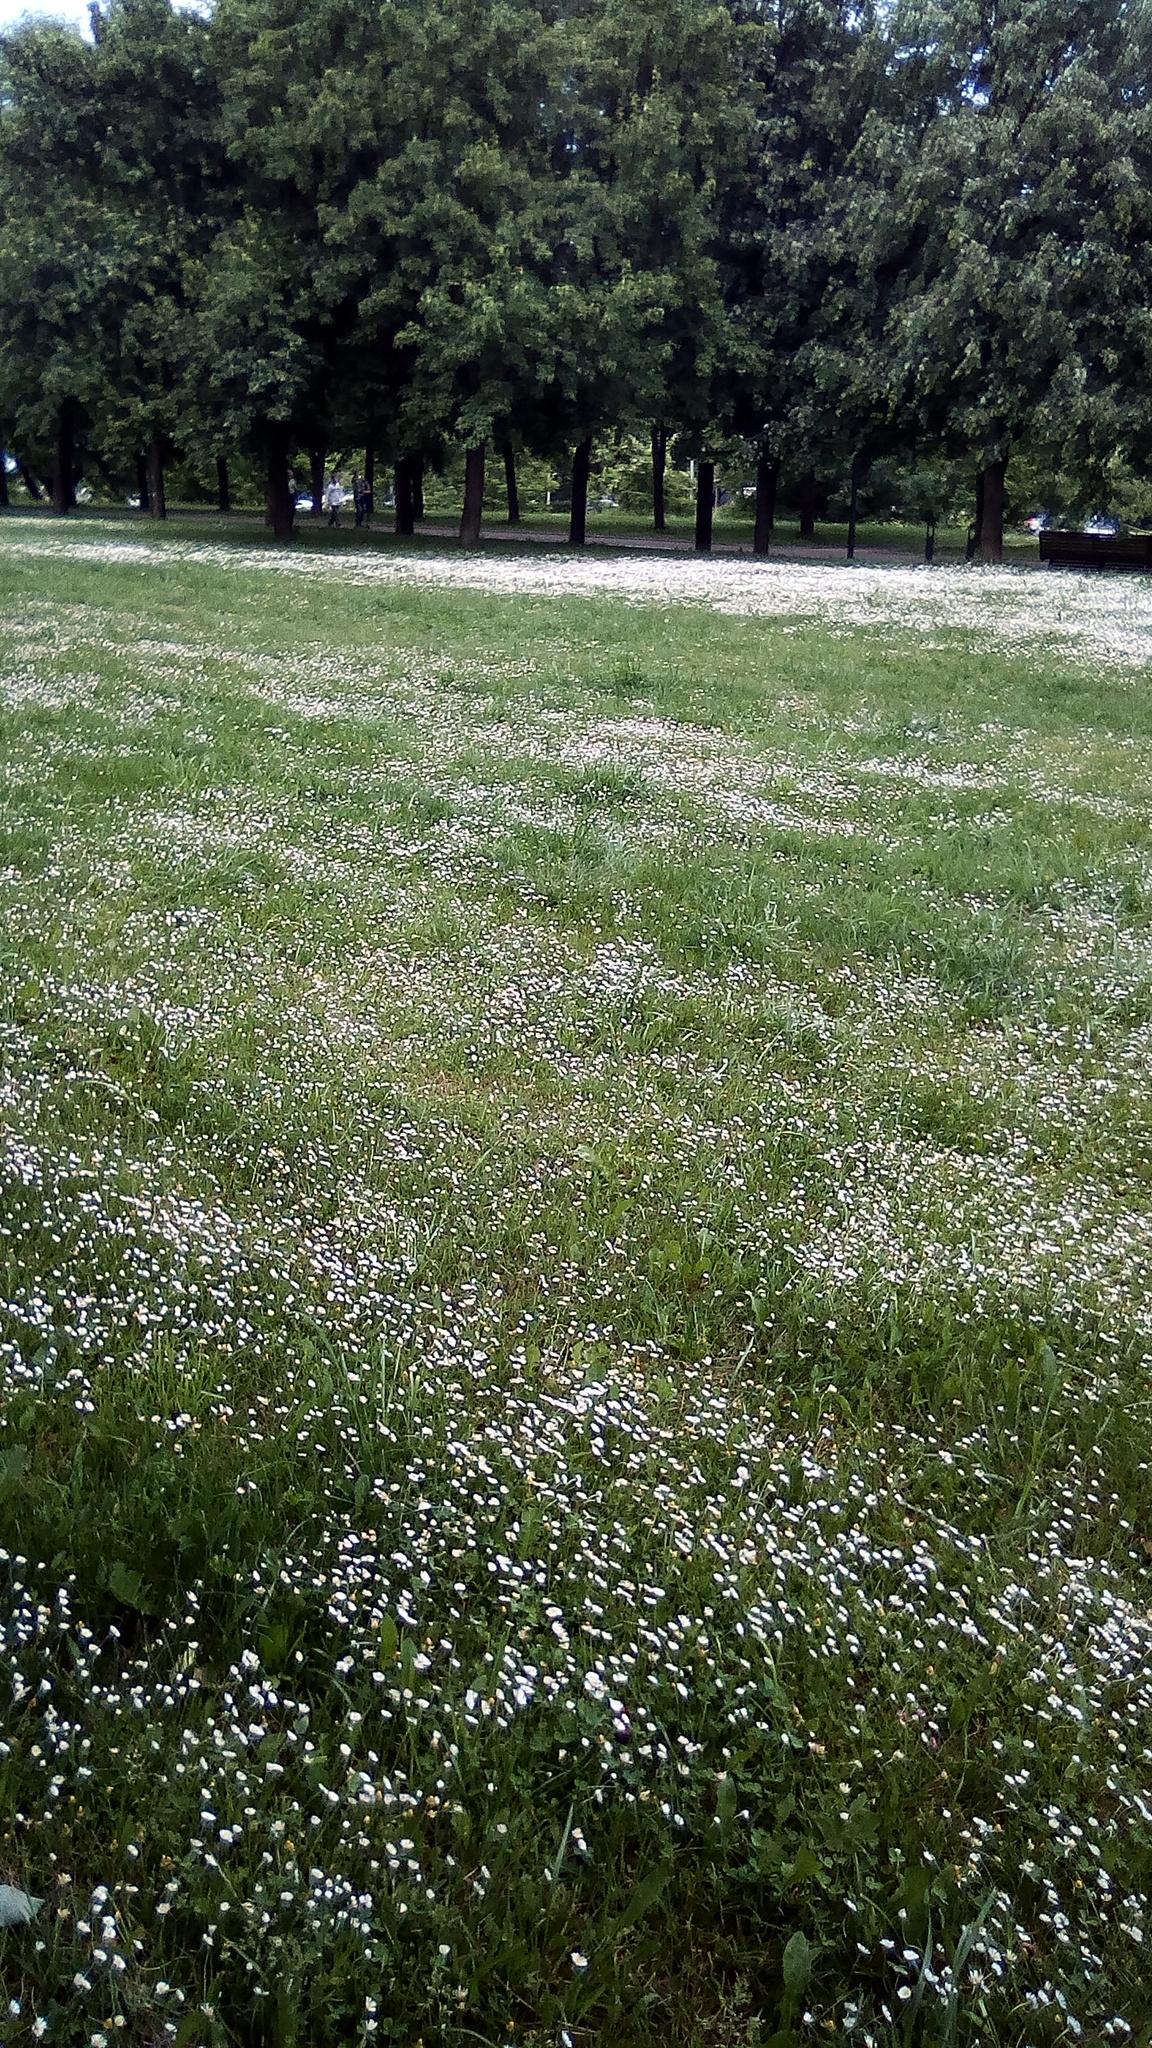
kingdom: Plantae
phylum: Tracheophyta
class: Magnoliopsida
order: Asterales
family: Asteraceae
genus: Bellis
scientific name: Bellis perennis
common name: Lawndaisy
